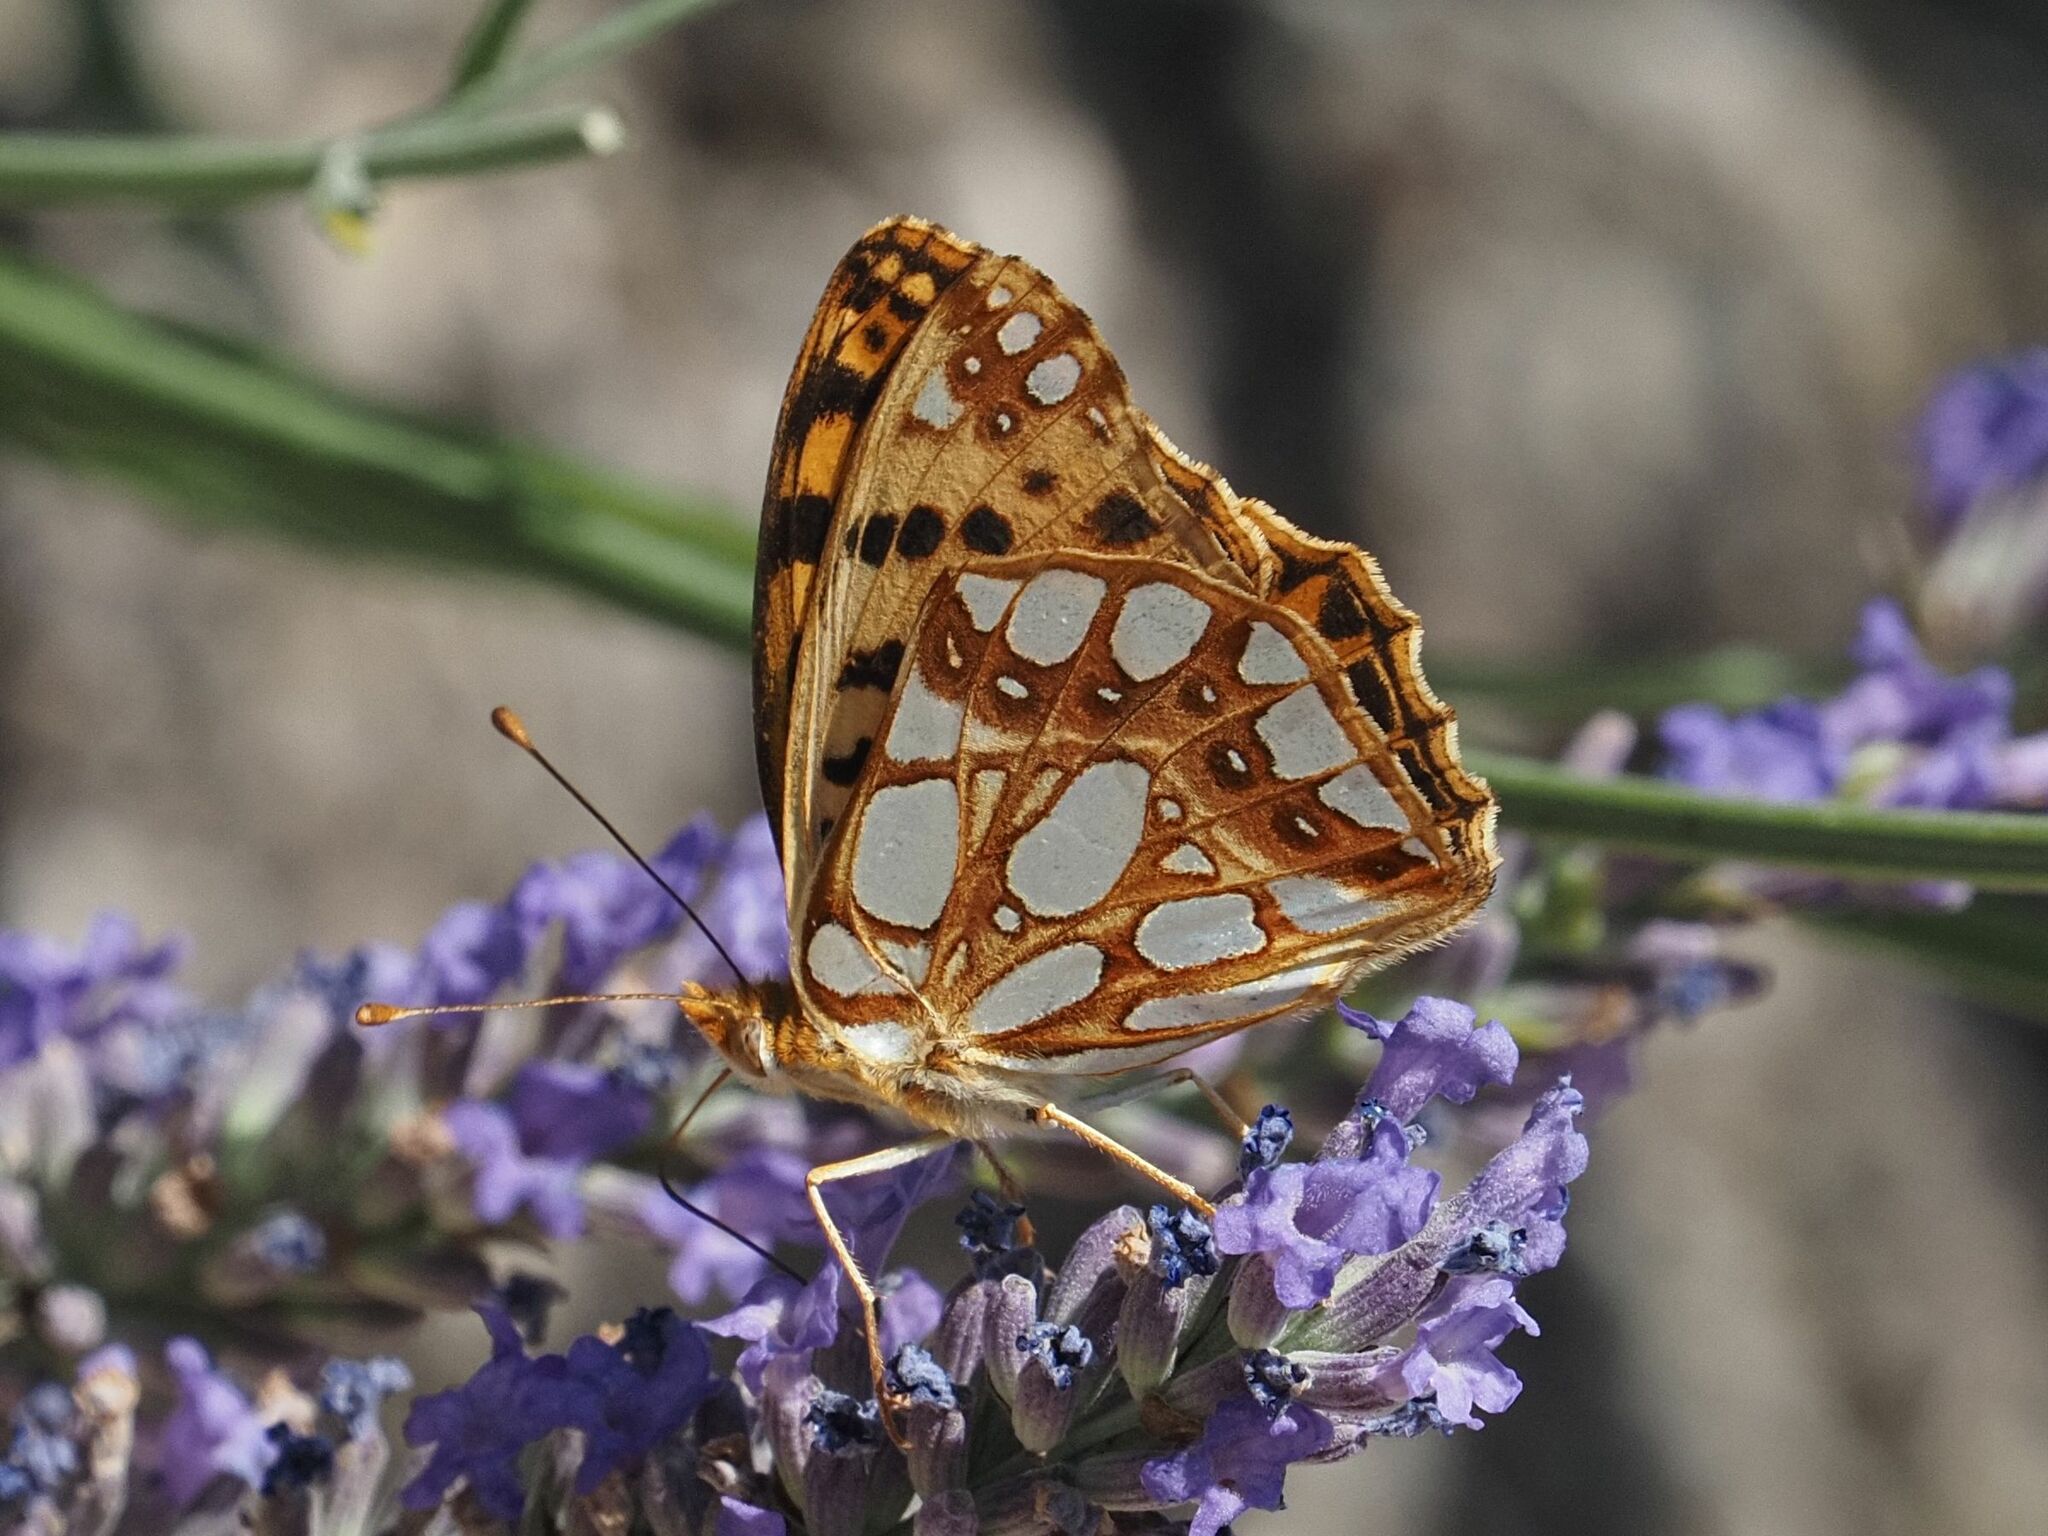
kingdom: Animalia
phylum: Arthropoda
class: Insecta
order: Lepidoptera
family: Nymphalidae
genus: Issoria
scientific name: Issoria lathonia
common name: Queen of spain fritillary
